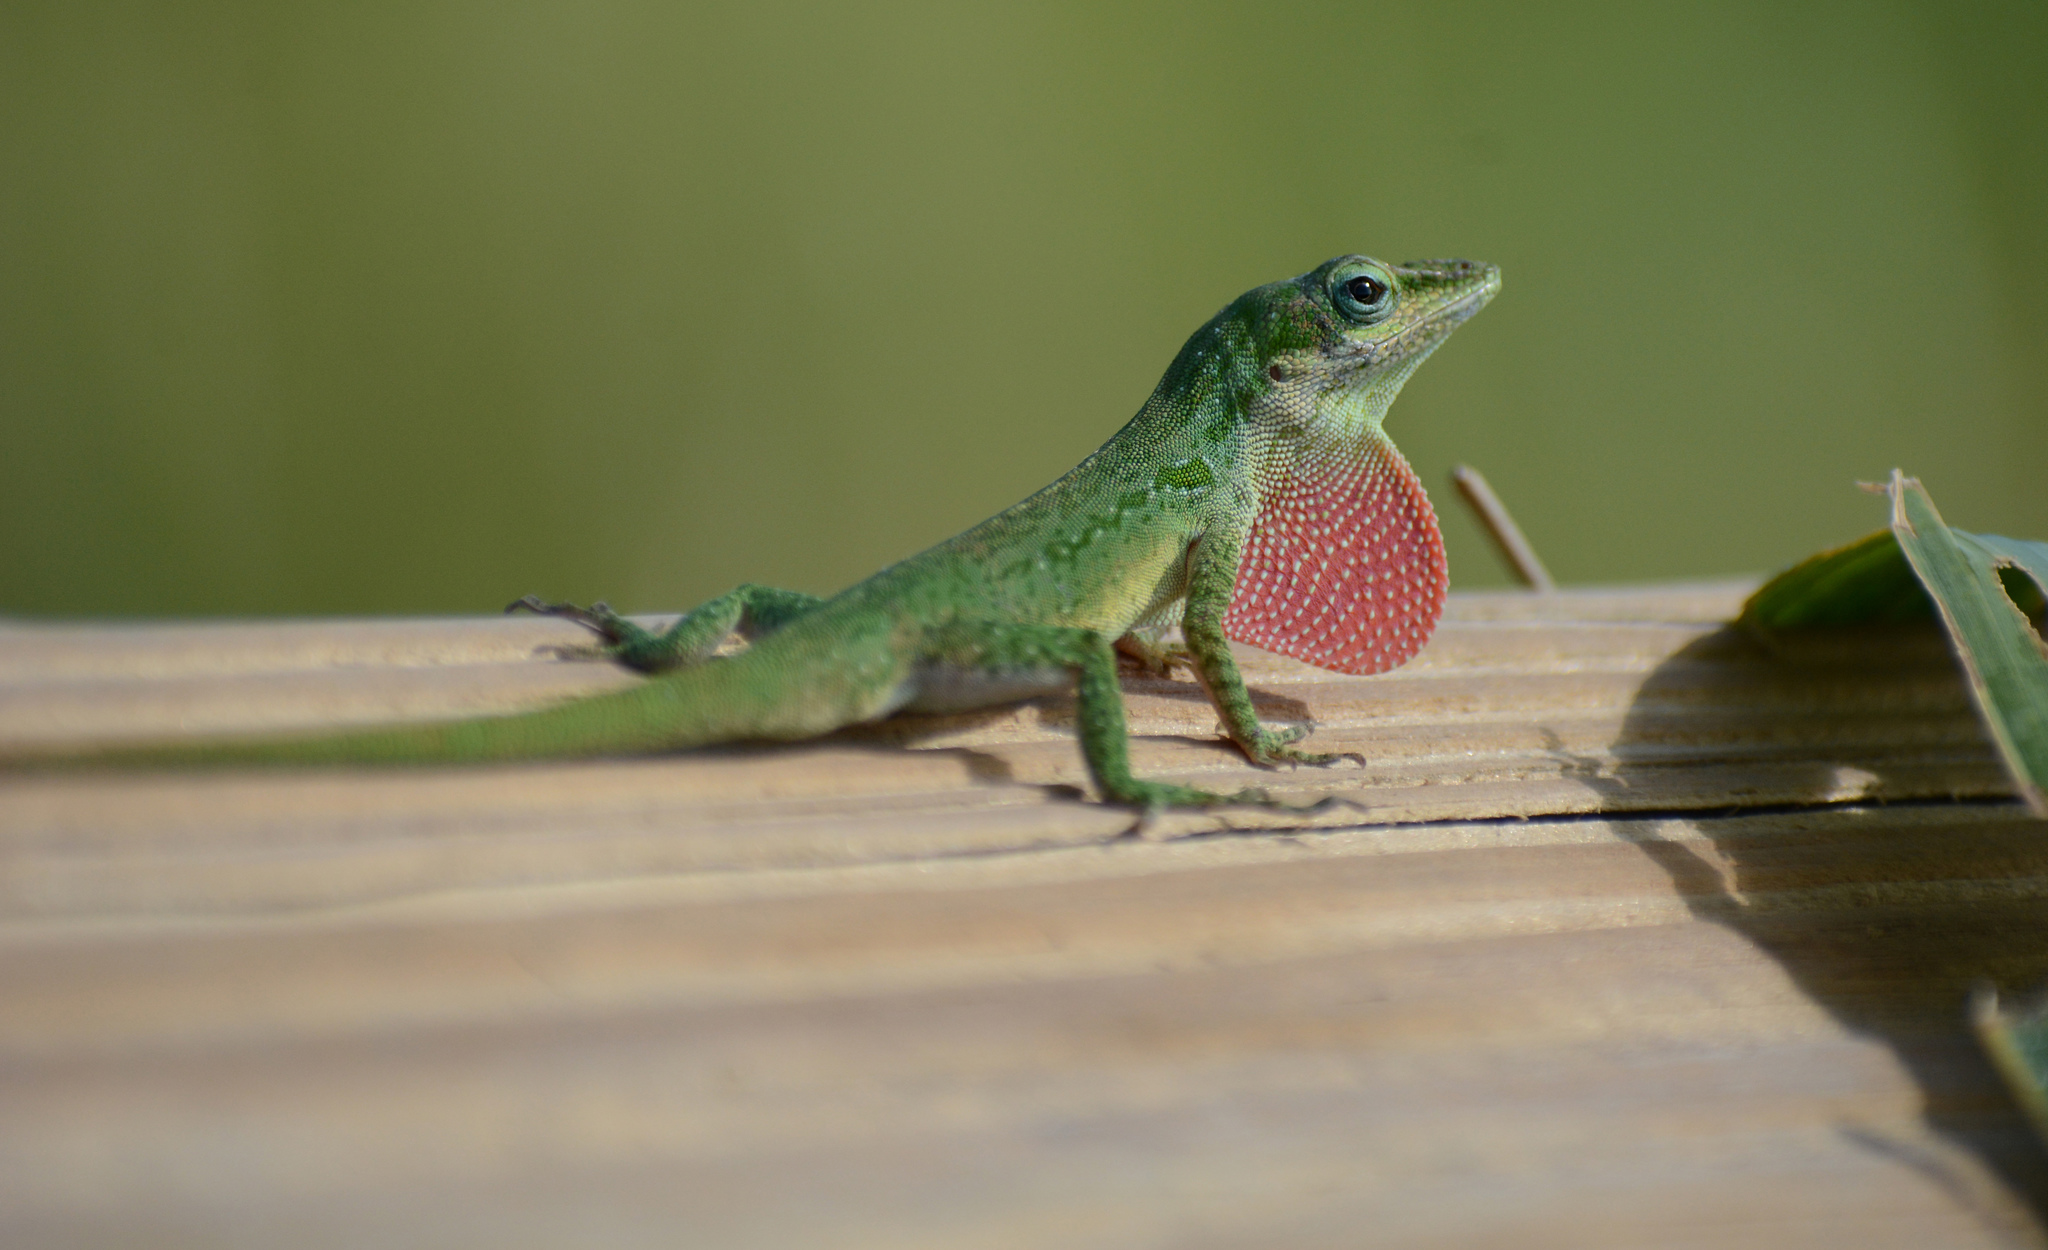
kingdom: Animalia
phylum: Chordata
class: Squamata
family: Dactyloidae
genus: Anolis
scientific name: Anolis carolinensis
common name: Green anole
